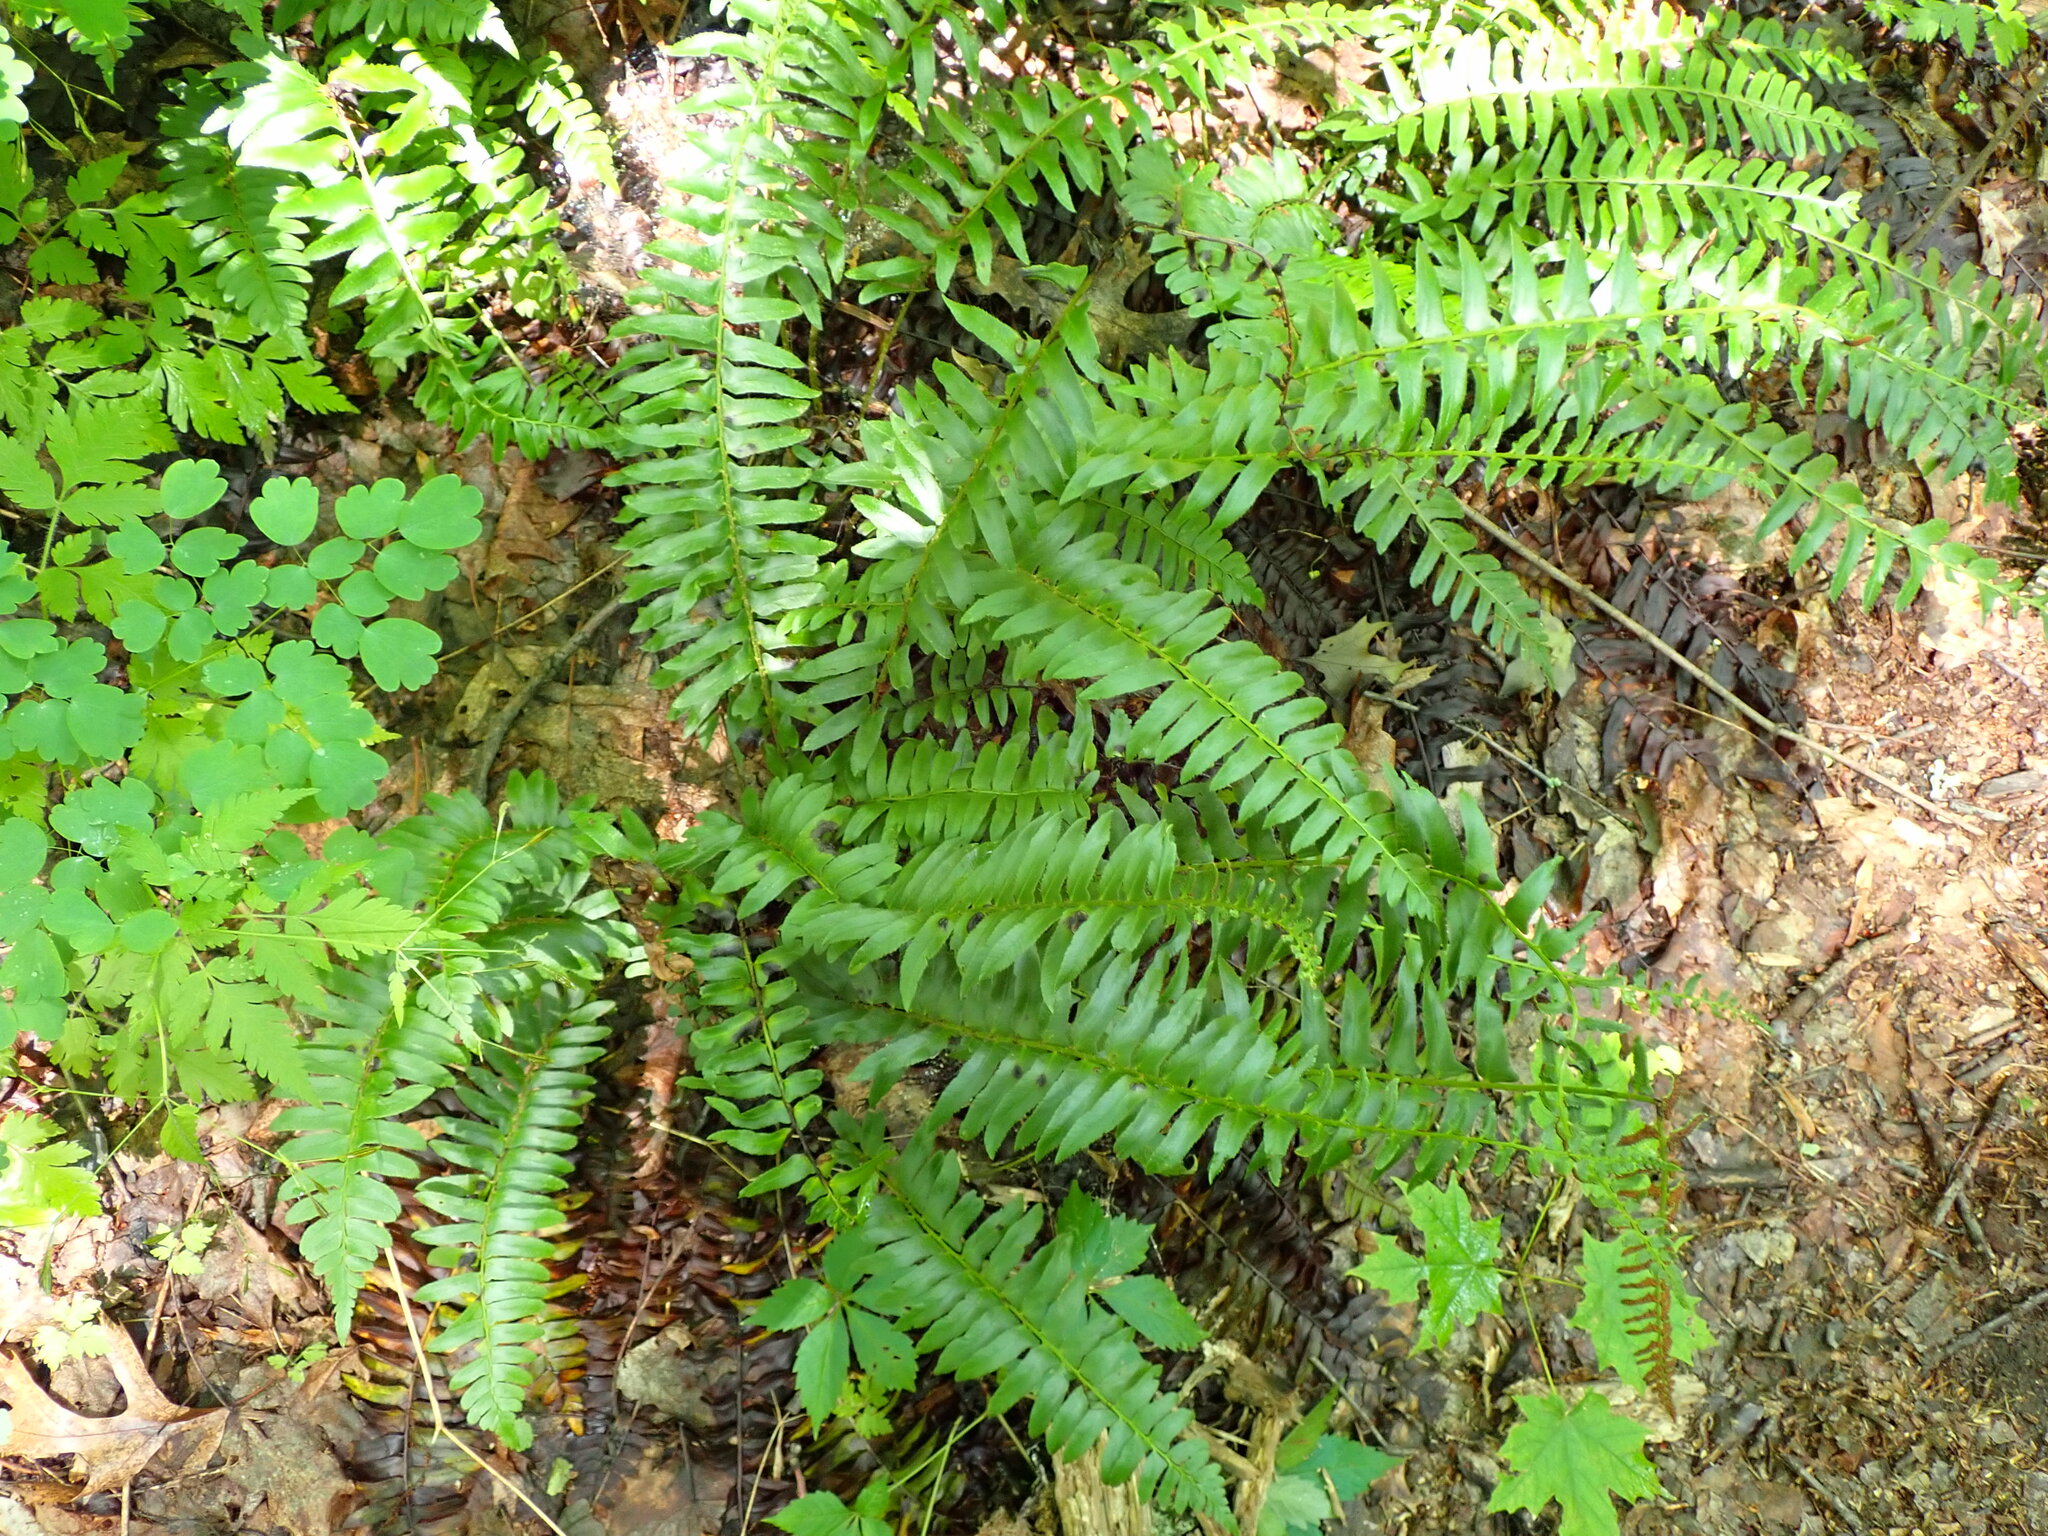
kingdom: Plantae
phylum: Tracheophyta
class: Polypodiopsida
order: Polypodiales
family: Dryopteridaceae
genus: Polystichum
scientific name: Polystichum acrostichoides
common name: Christmas fern
